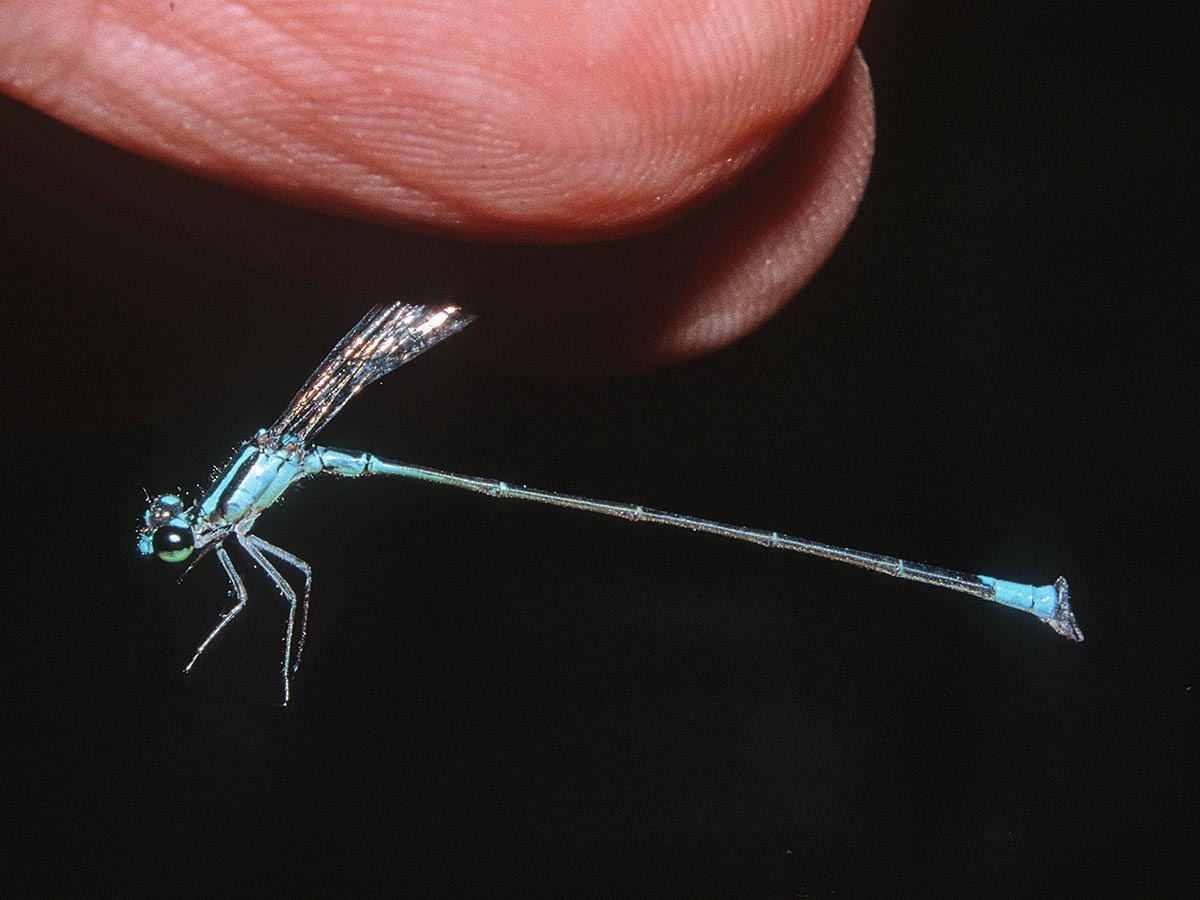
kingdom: Animalia
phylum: Arthropoda
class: Insecta
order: Odonata
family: Coenagrionidae
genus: Acanthagrion
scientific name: Acanthagrion aepiolum
